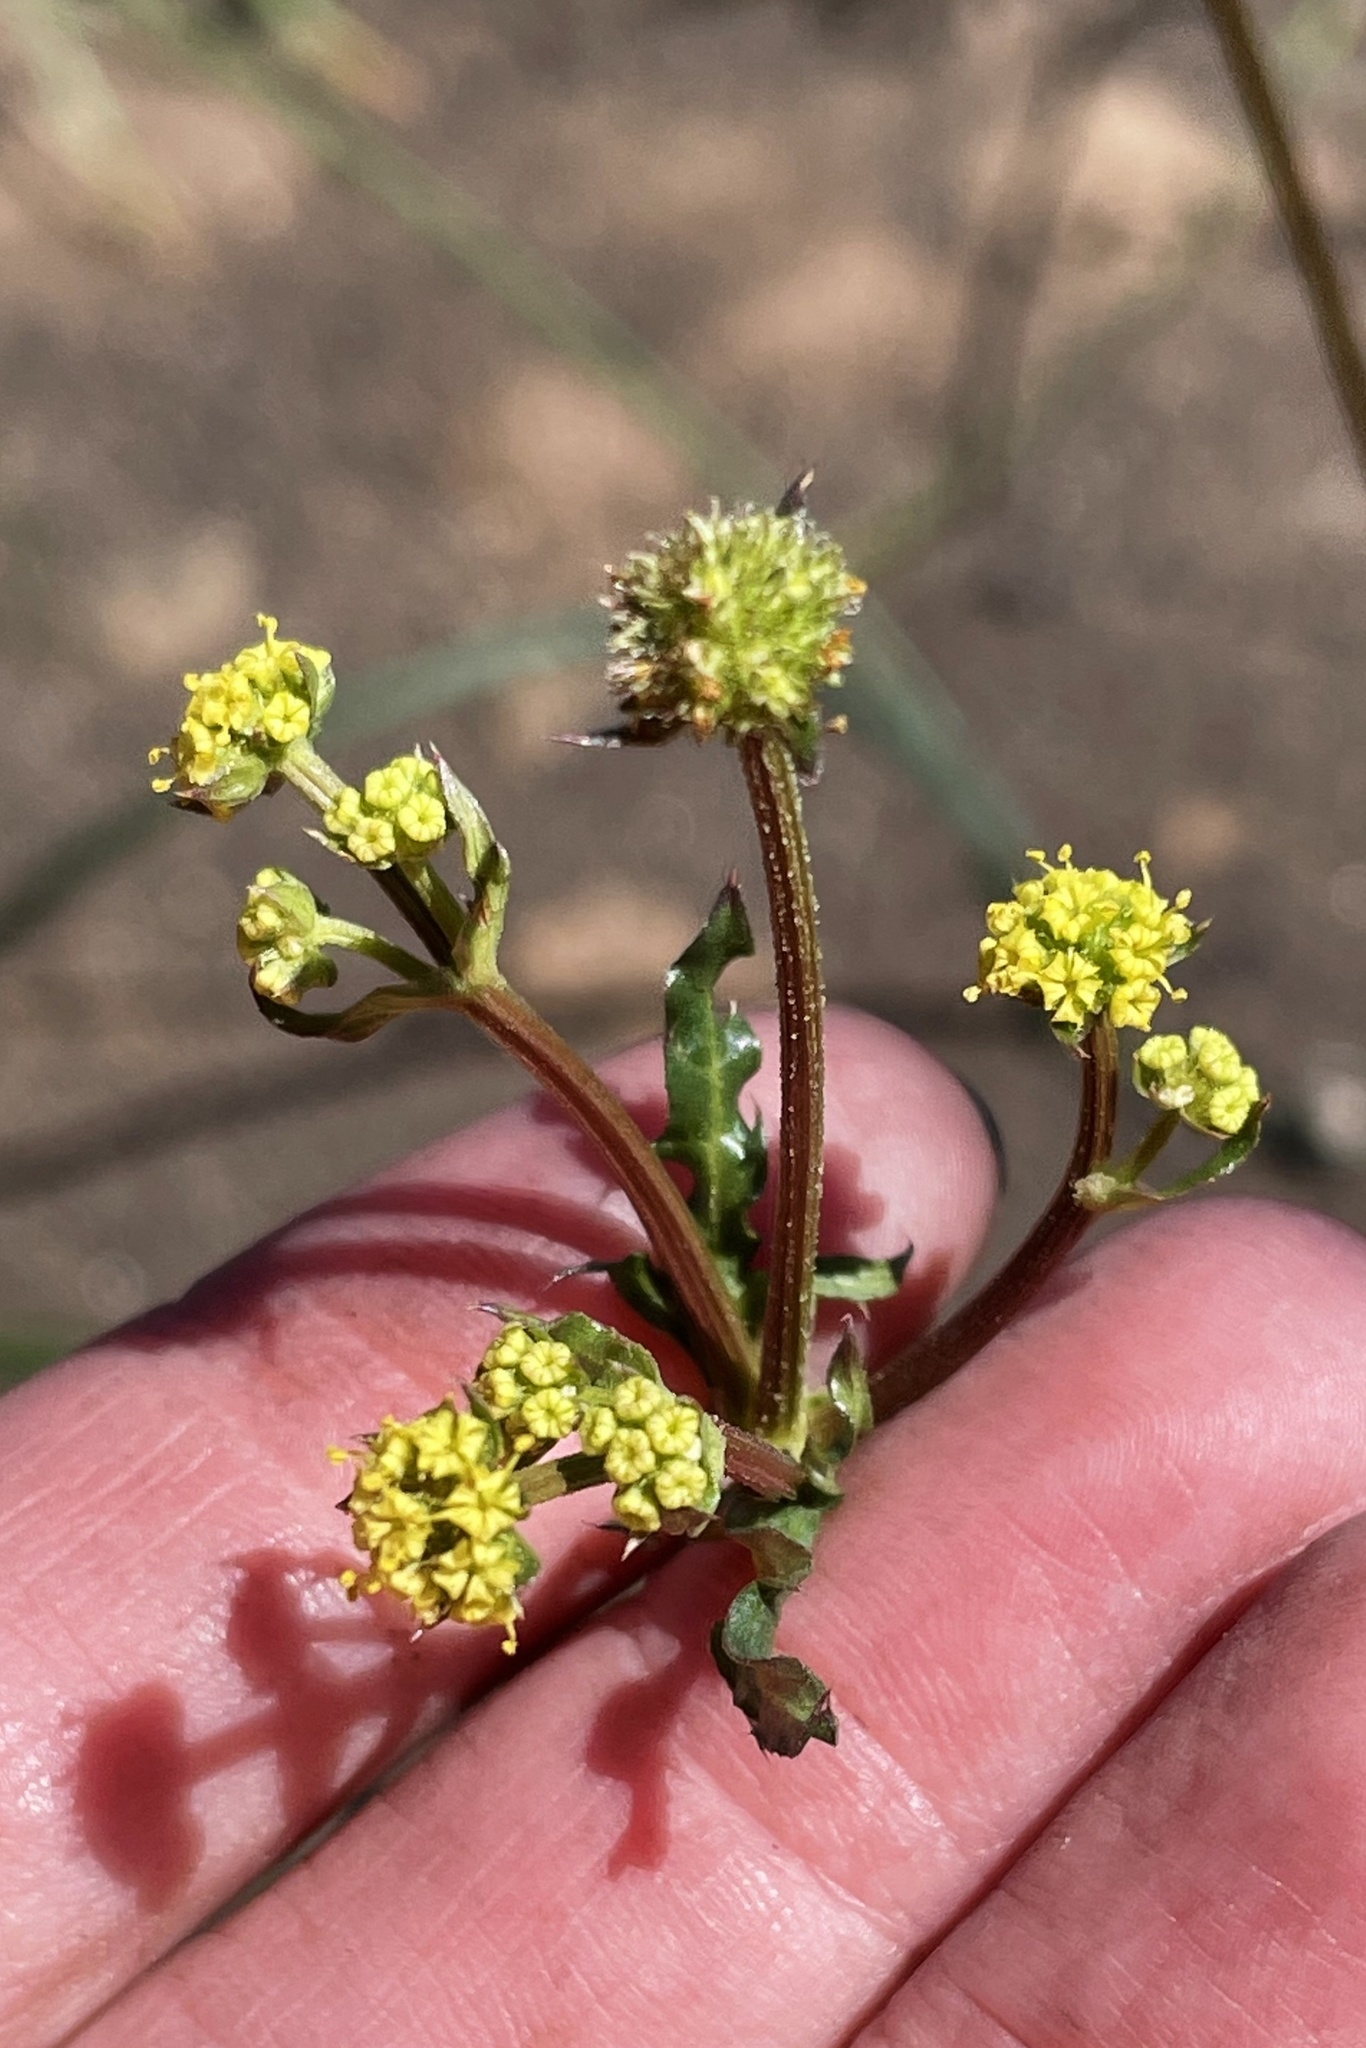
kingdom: Plantae
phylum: Tracheophyta
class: Magnoliopsida
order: Apiales
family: Apiaceae
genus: Sanicula
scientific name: Sanicula crassicaulis
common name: Western snakeroot
